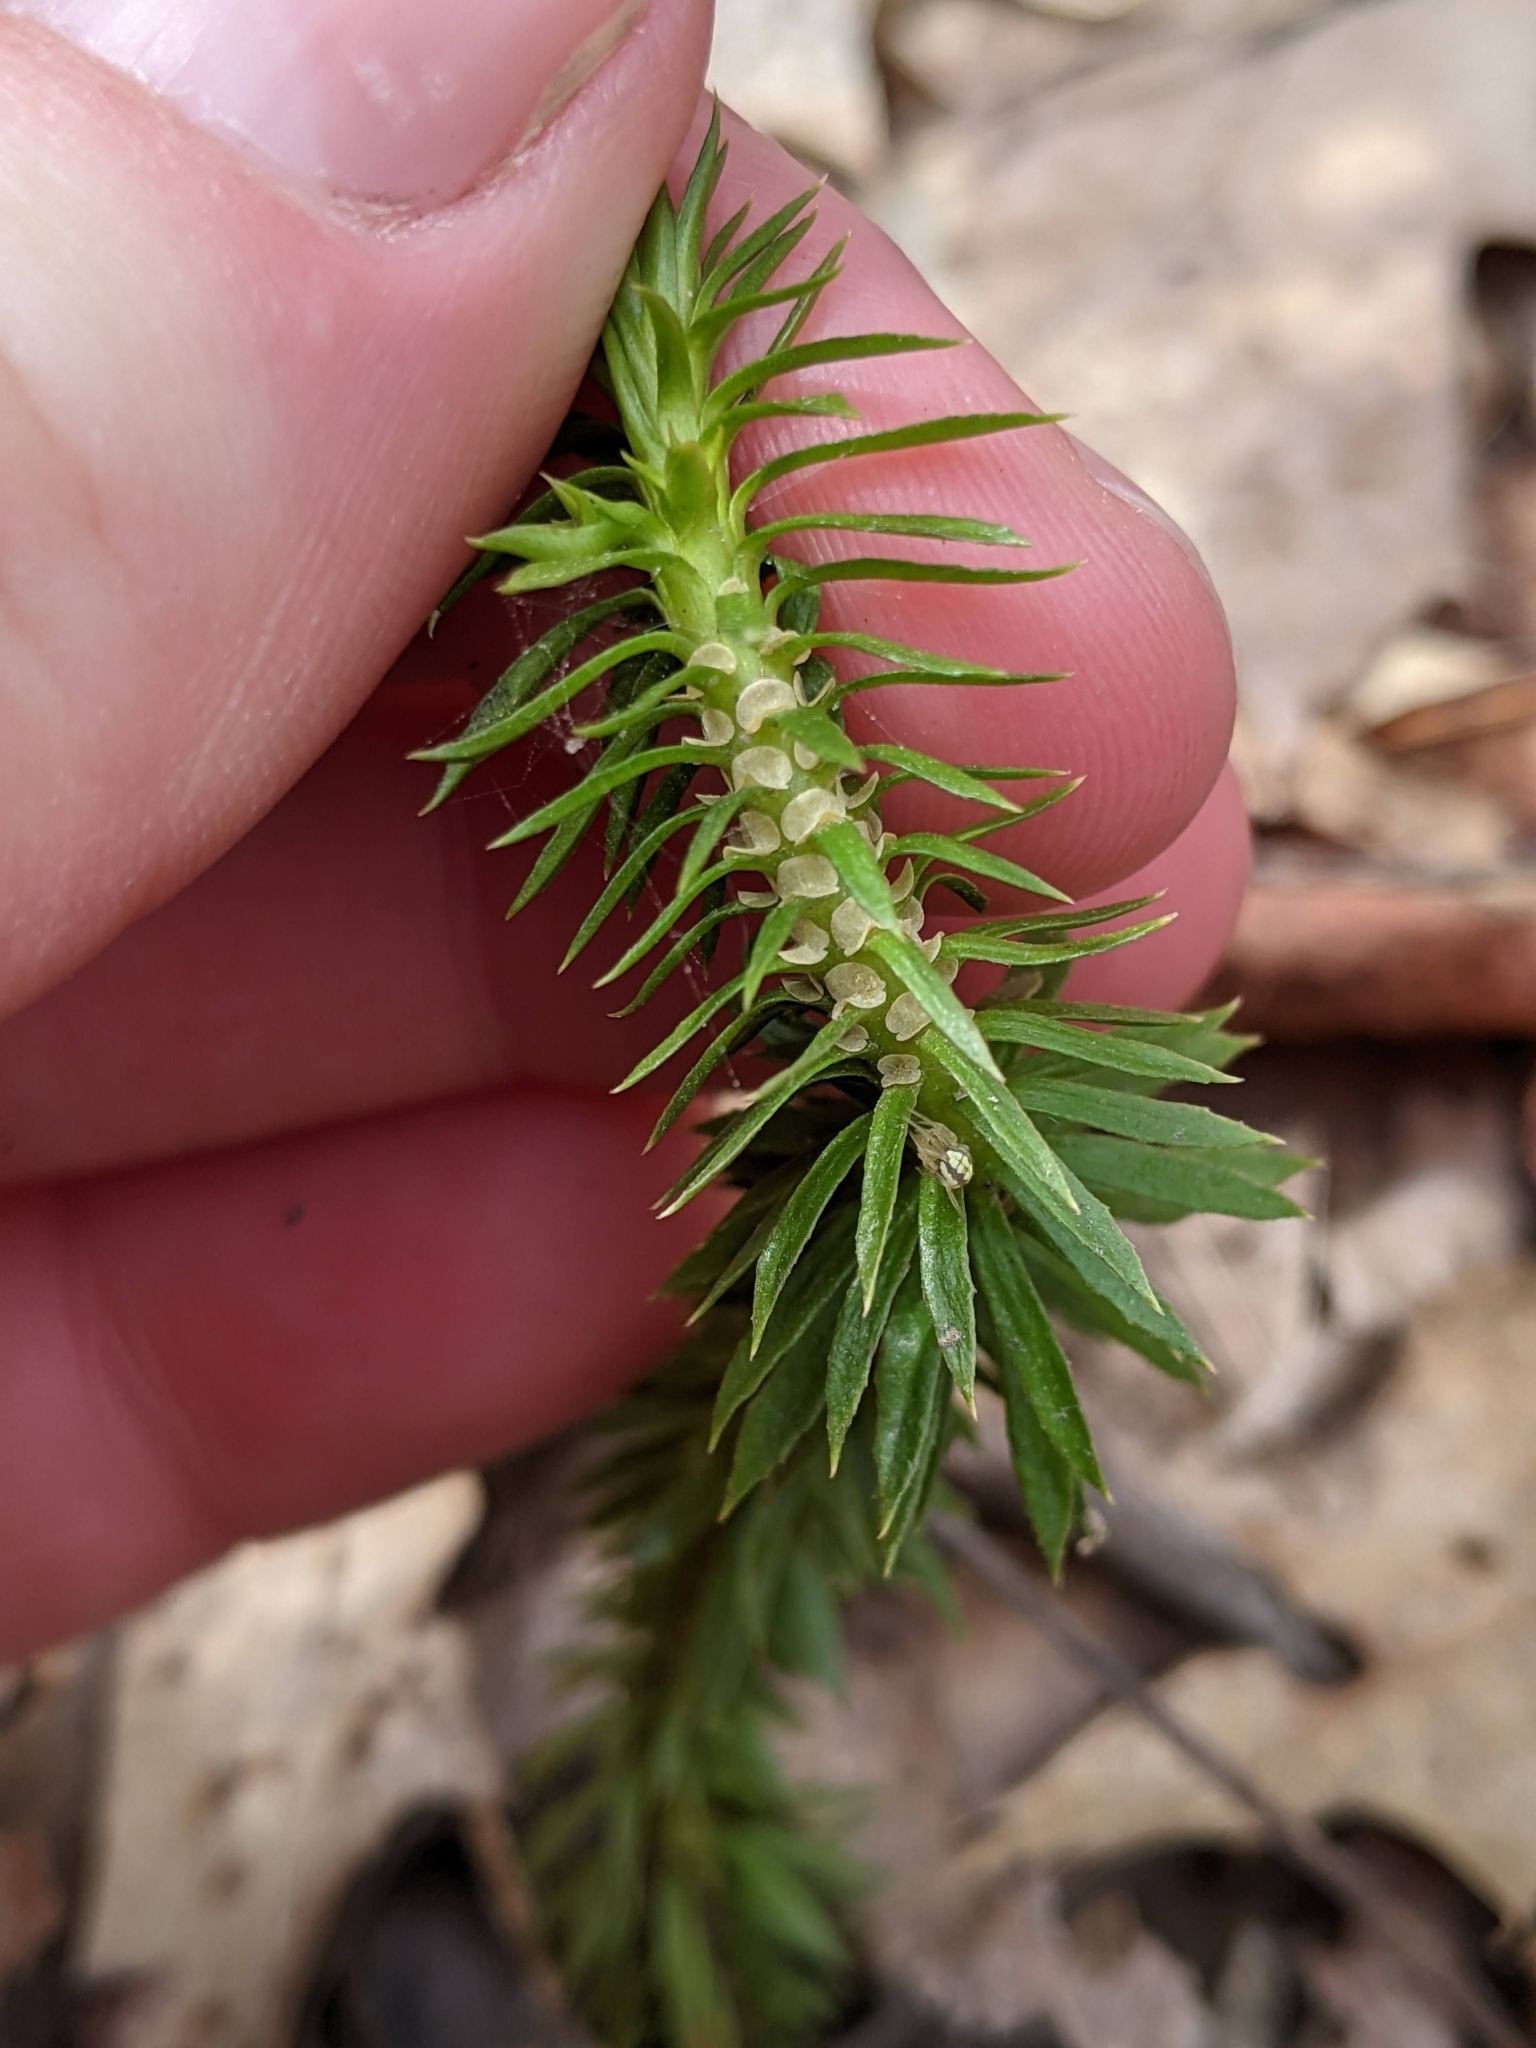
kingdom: Plantae
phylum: Tracheophyta
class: Lycopodiopsida
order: Lycopodiales
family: Lycopodiaceae
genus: Huperzia
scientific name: Huperzia lucidula
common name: Shining clubmoss
